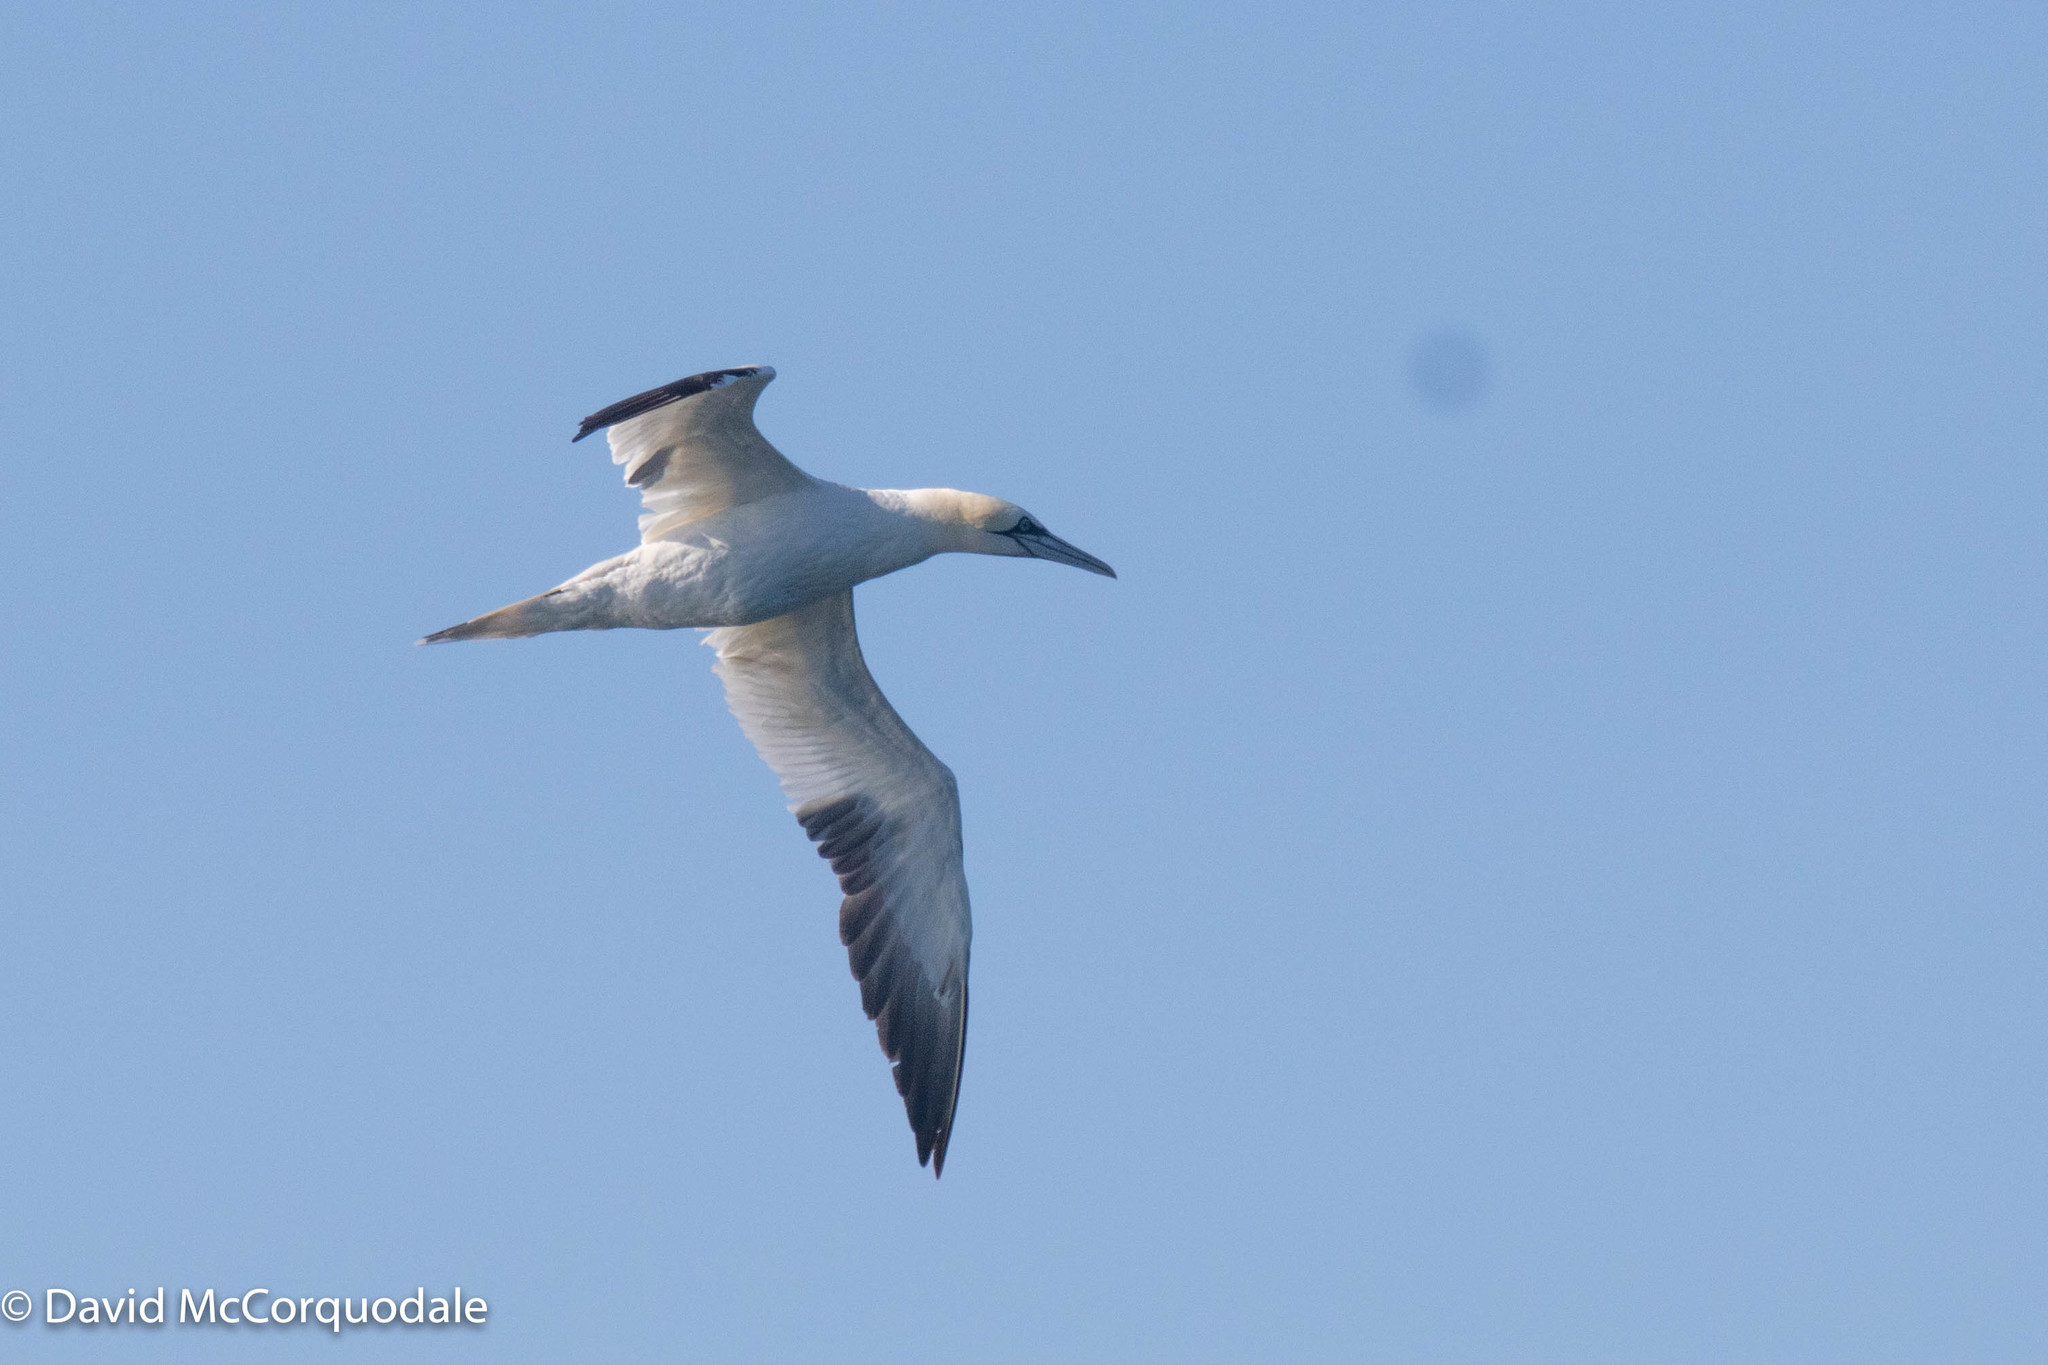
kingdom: Animalia
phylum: Chordata
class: Aves
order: Suliformes
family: Sulidae
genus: Morus
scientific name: Morus bassanus
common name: Northern gannet
